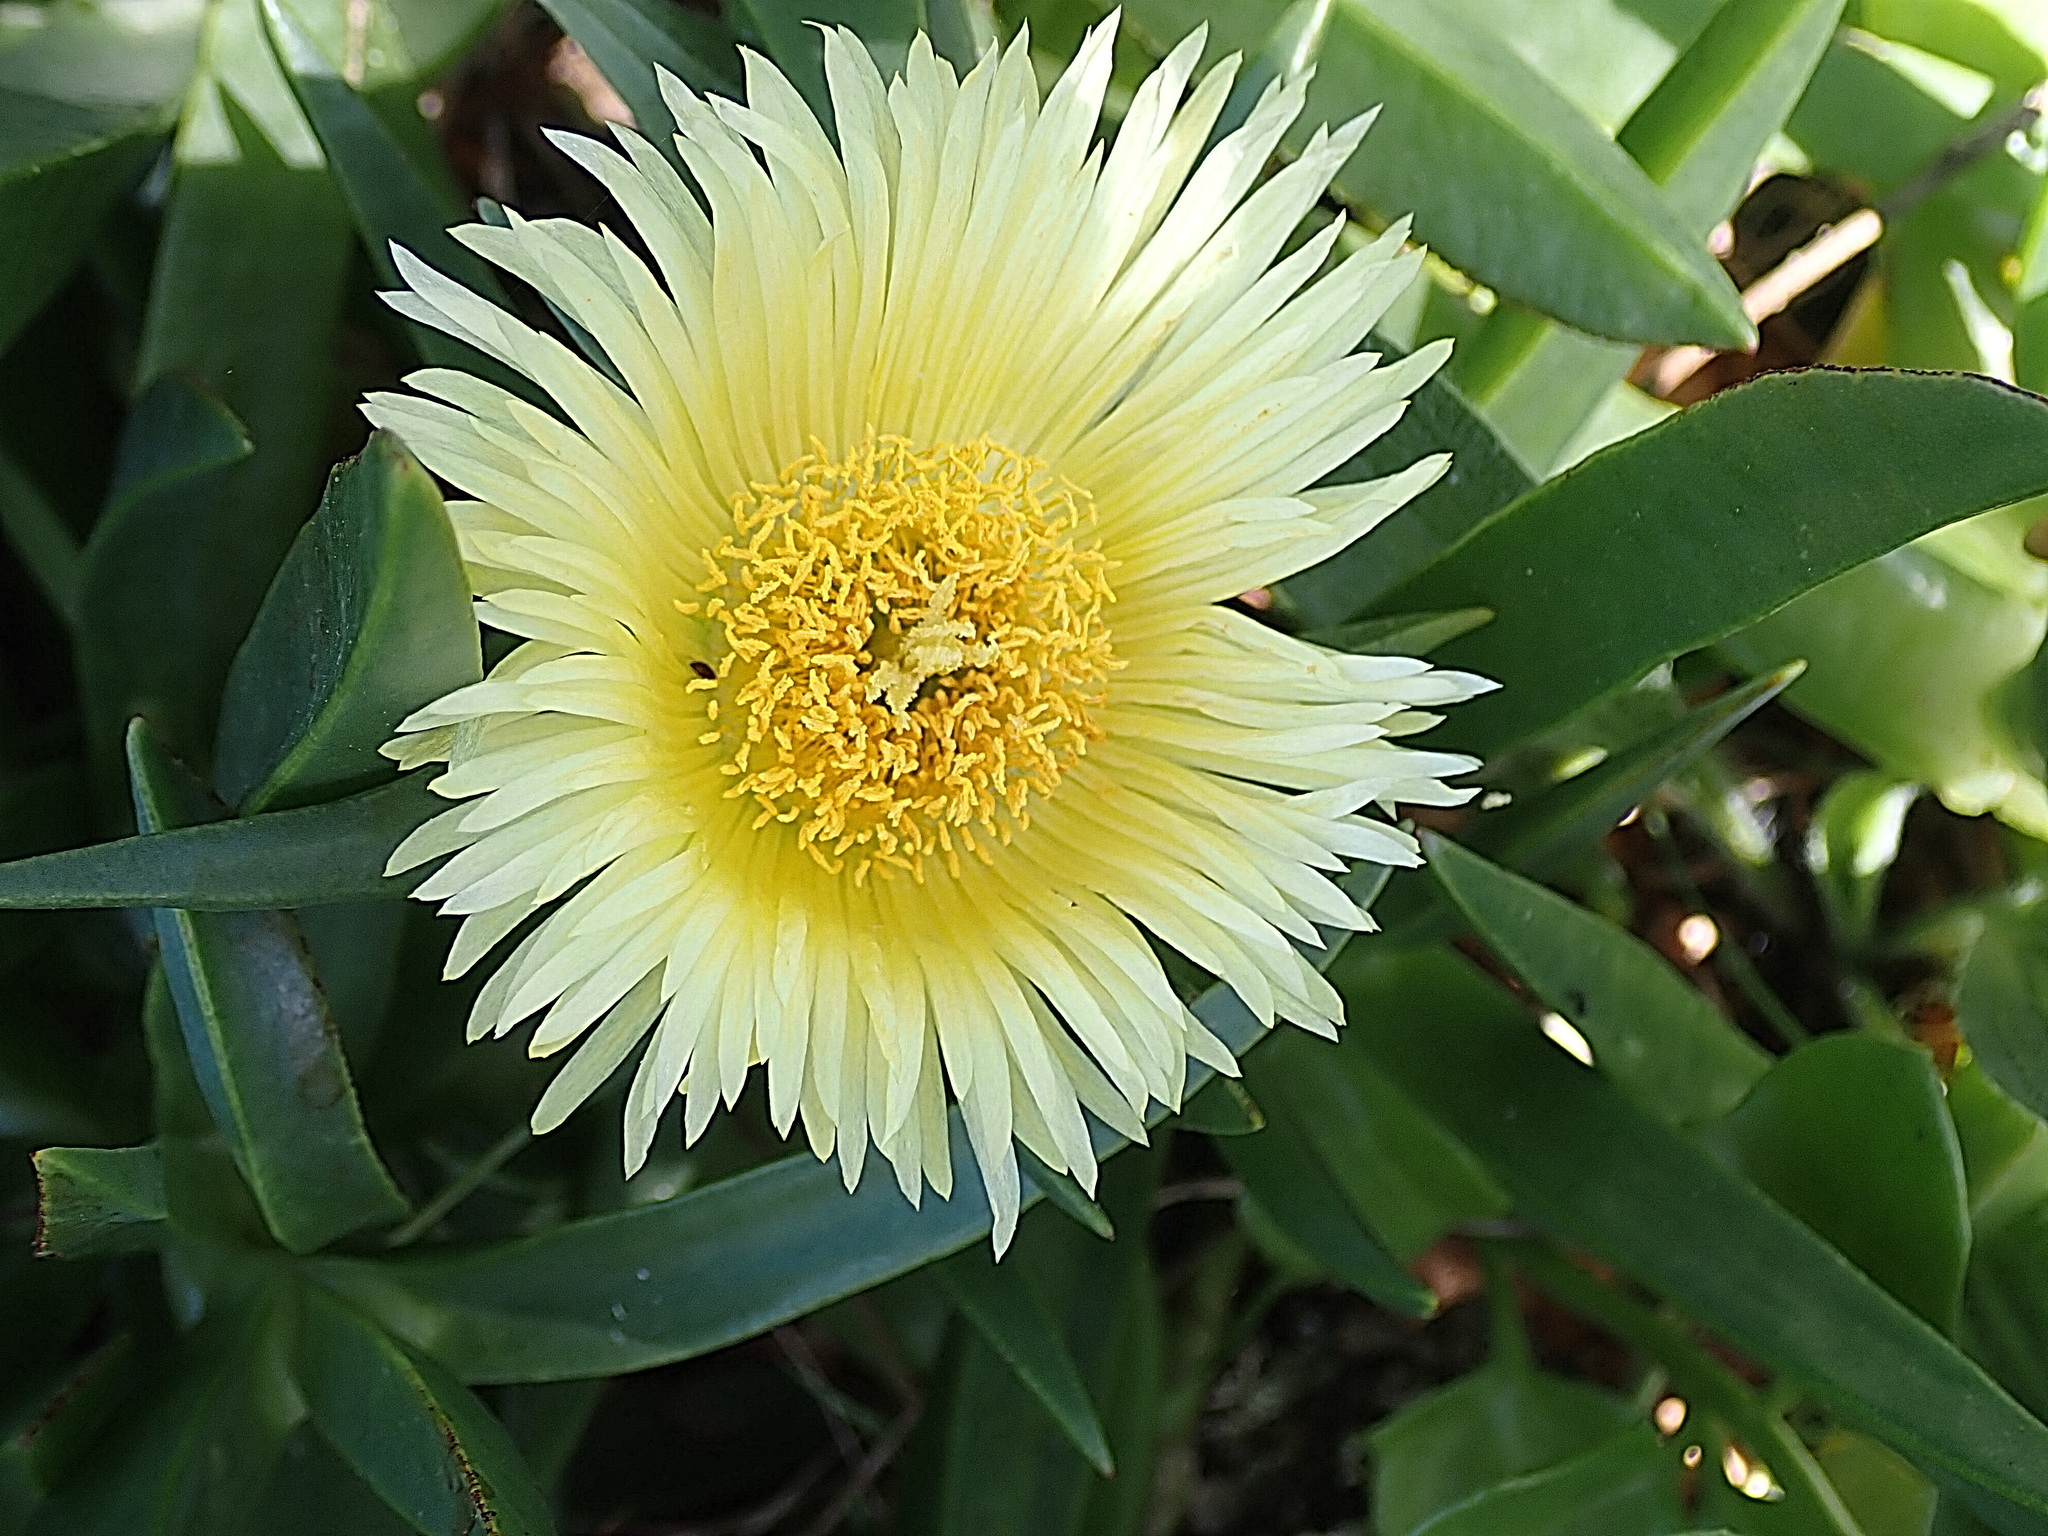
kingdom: Plantae
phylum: Tracheophyta
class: Magnoliopsida
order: Caryophyllales
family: Aizoaceae
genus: Carpobrotus
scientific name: Carpobrotus edulis
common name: Hottentot-fig
